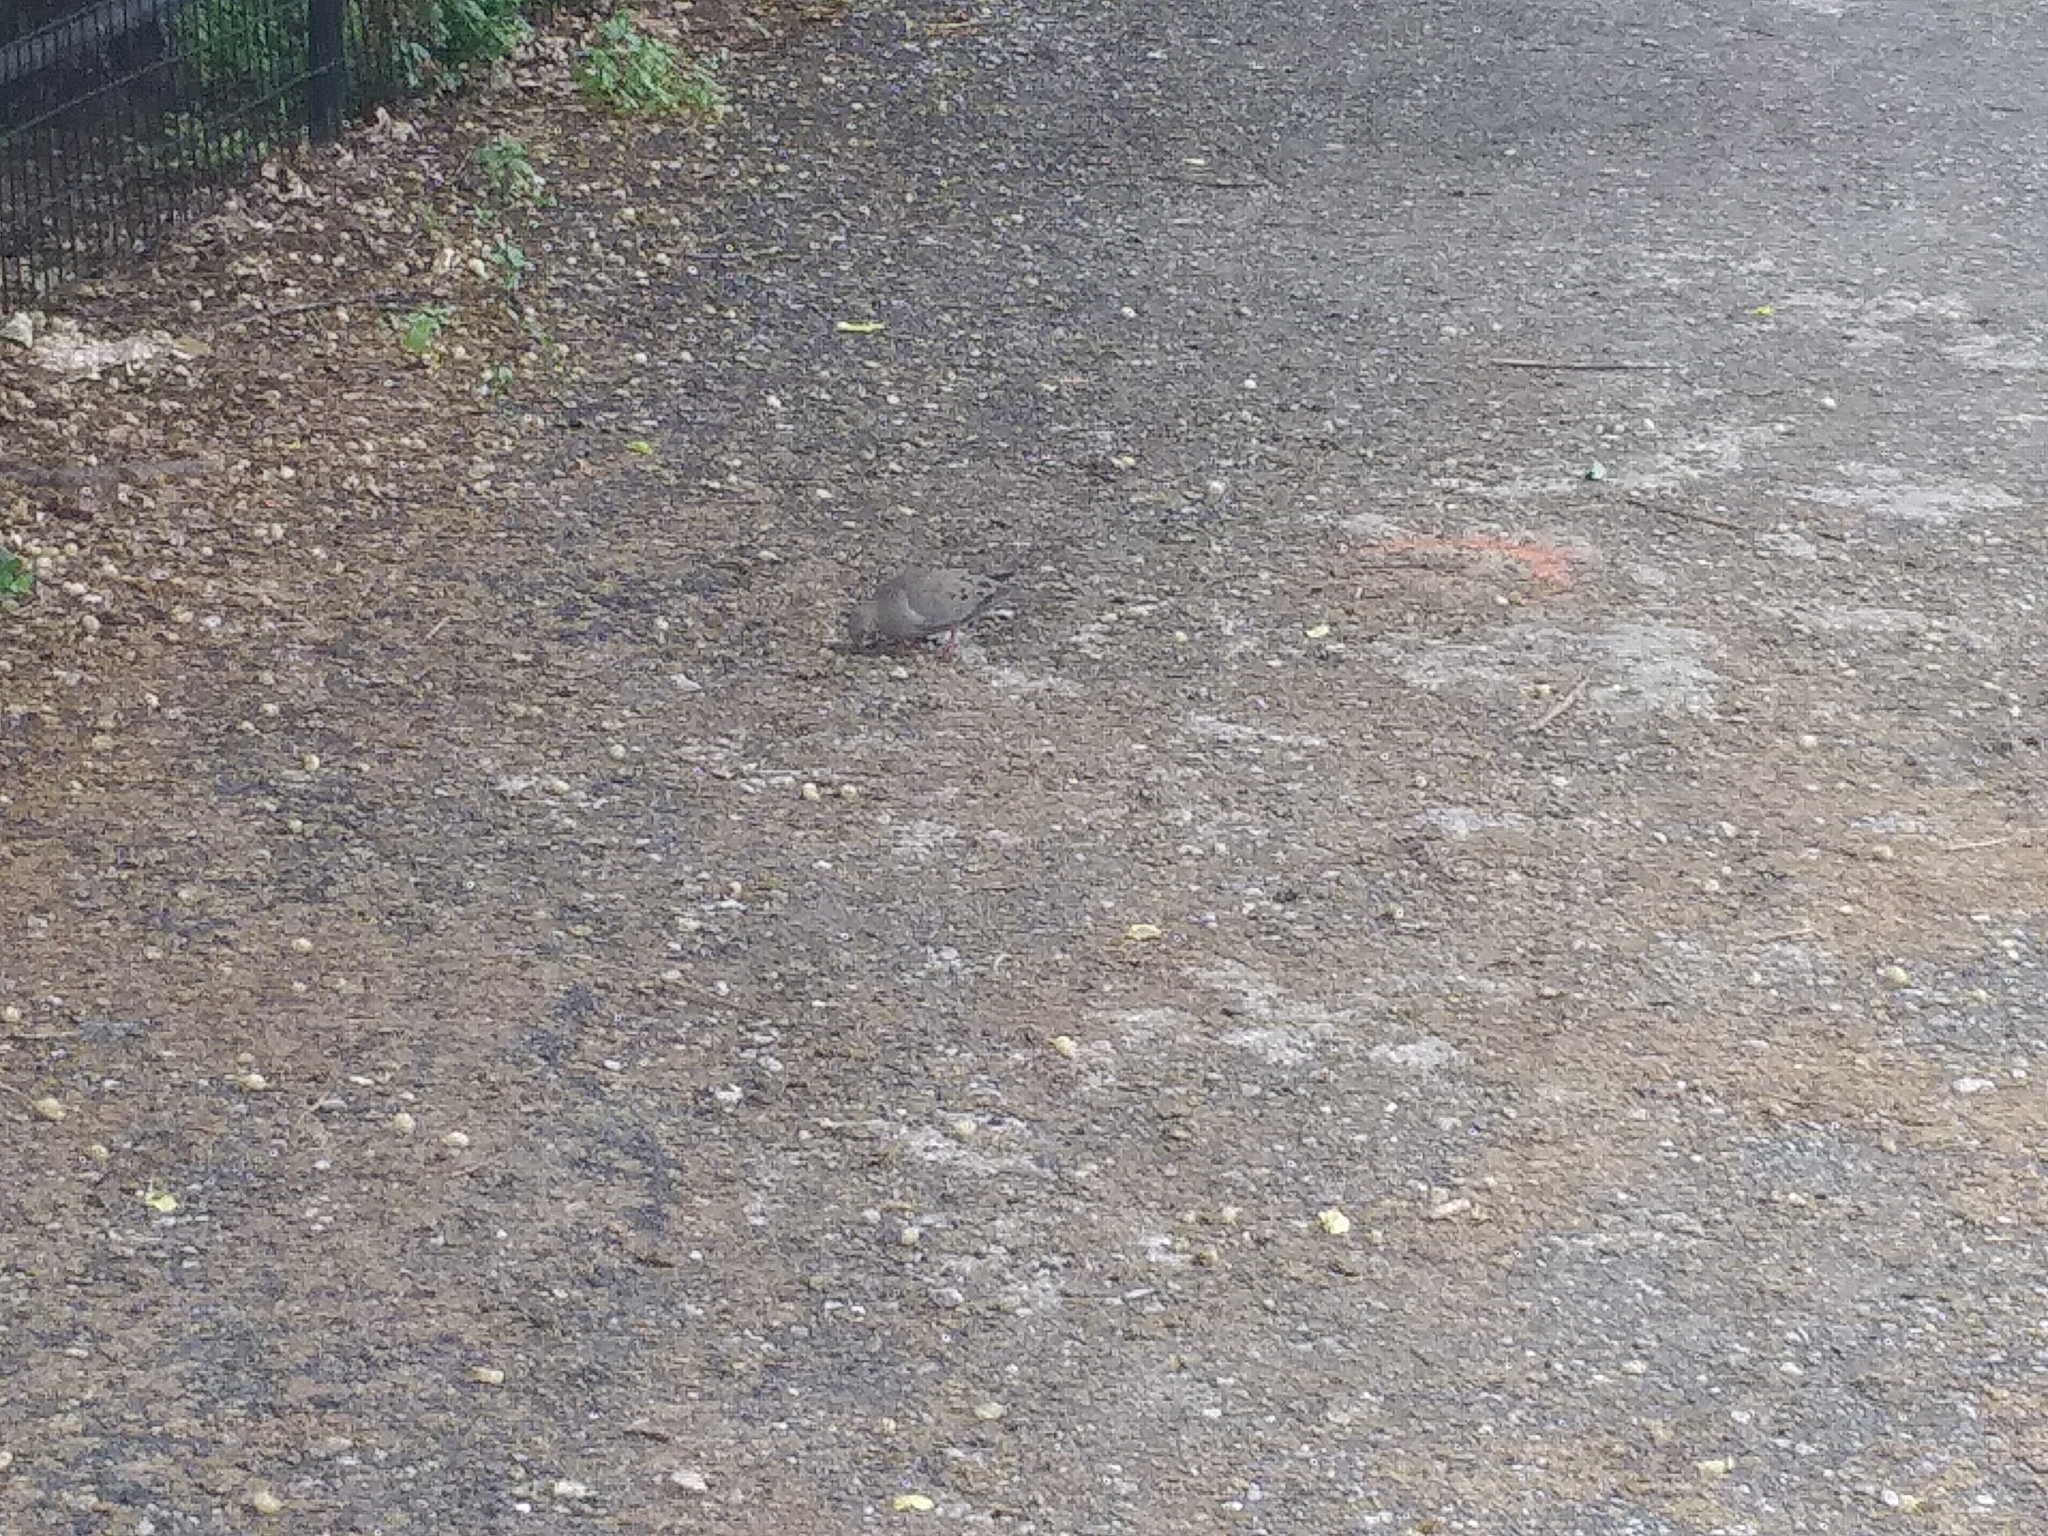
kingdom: Animalia
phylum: Chordata
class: Aves
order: Columbiformes
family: Columbidae
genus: Zenaida
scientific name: Zenaida macroura
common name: Mourning dove
